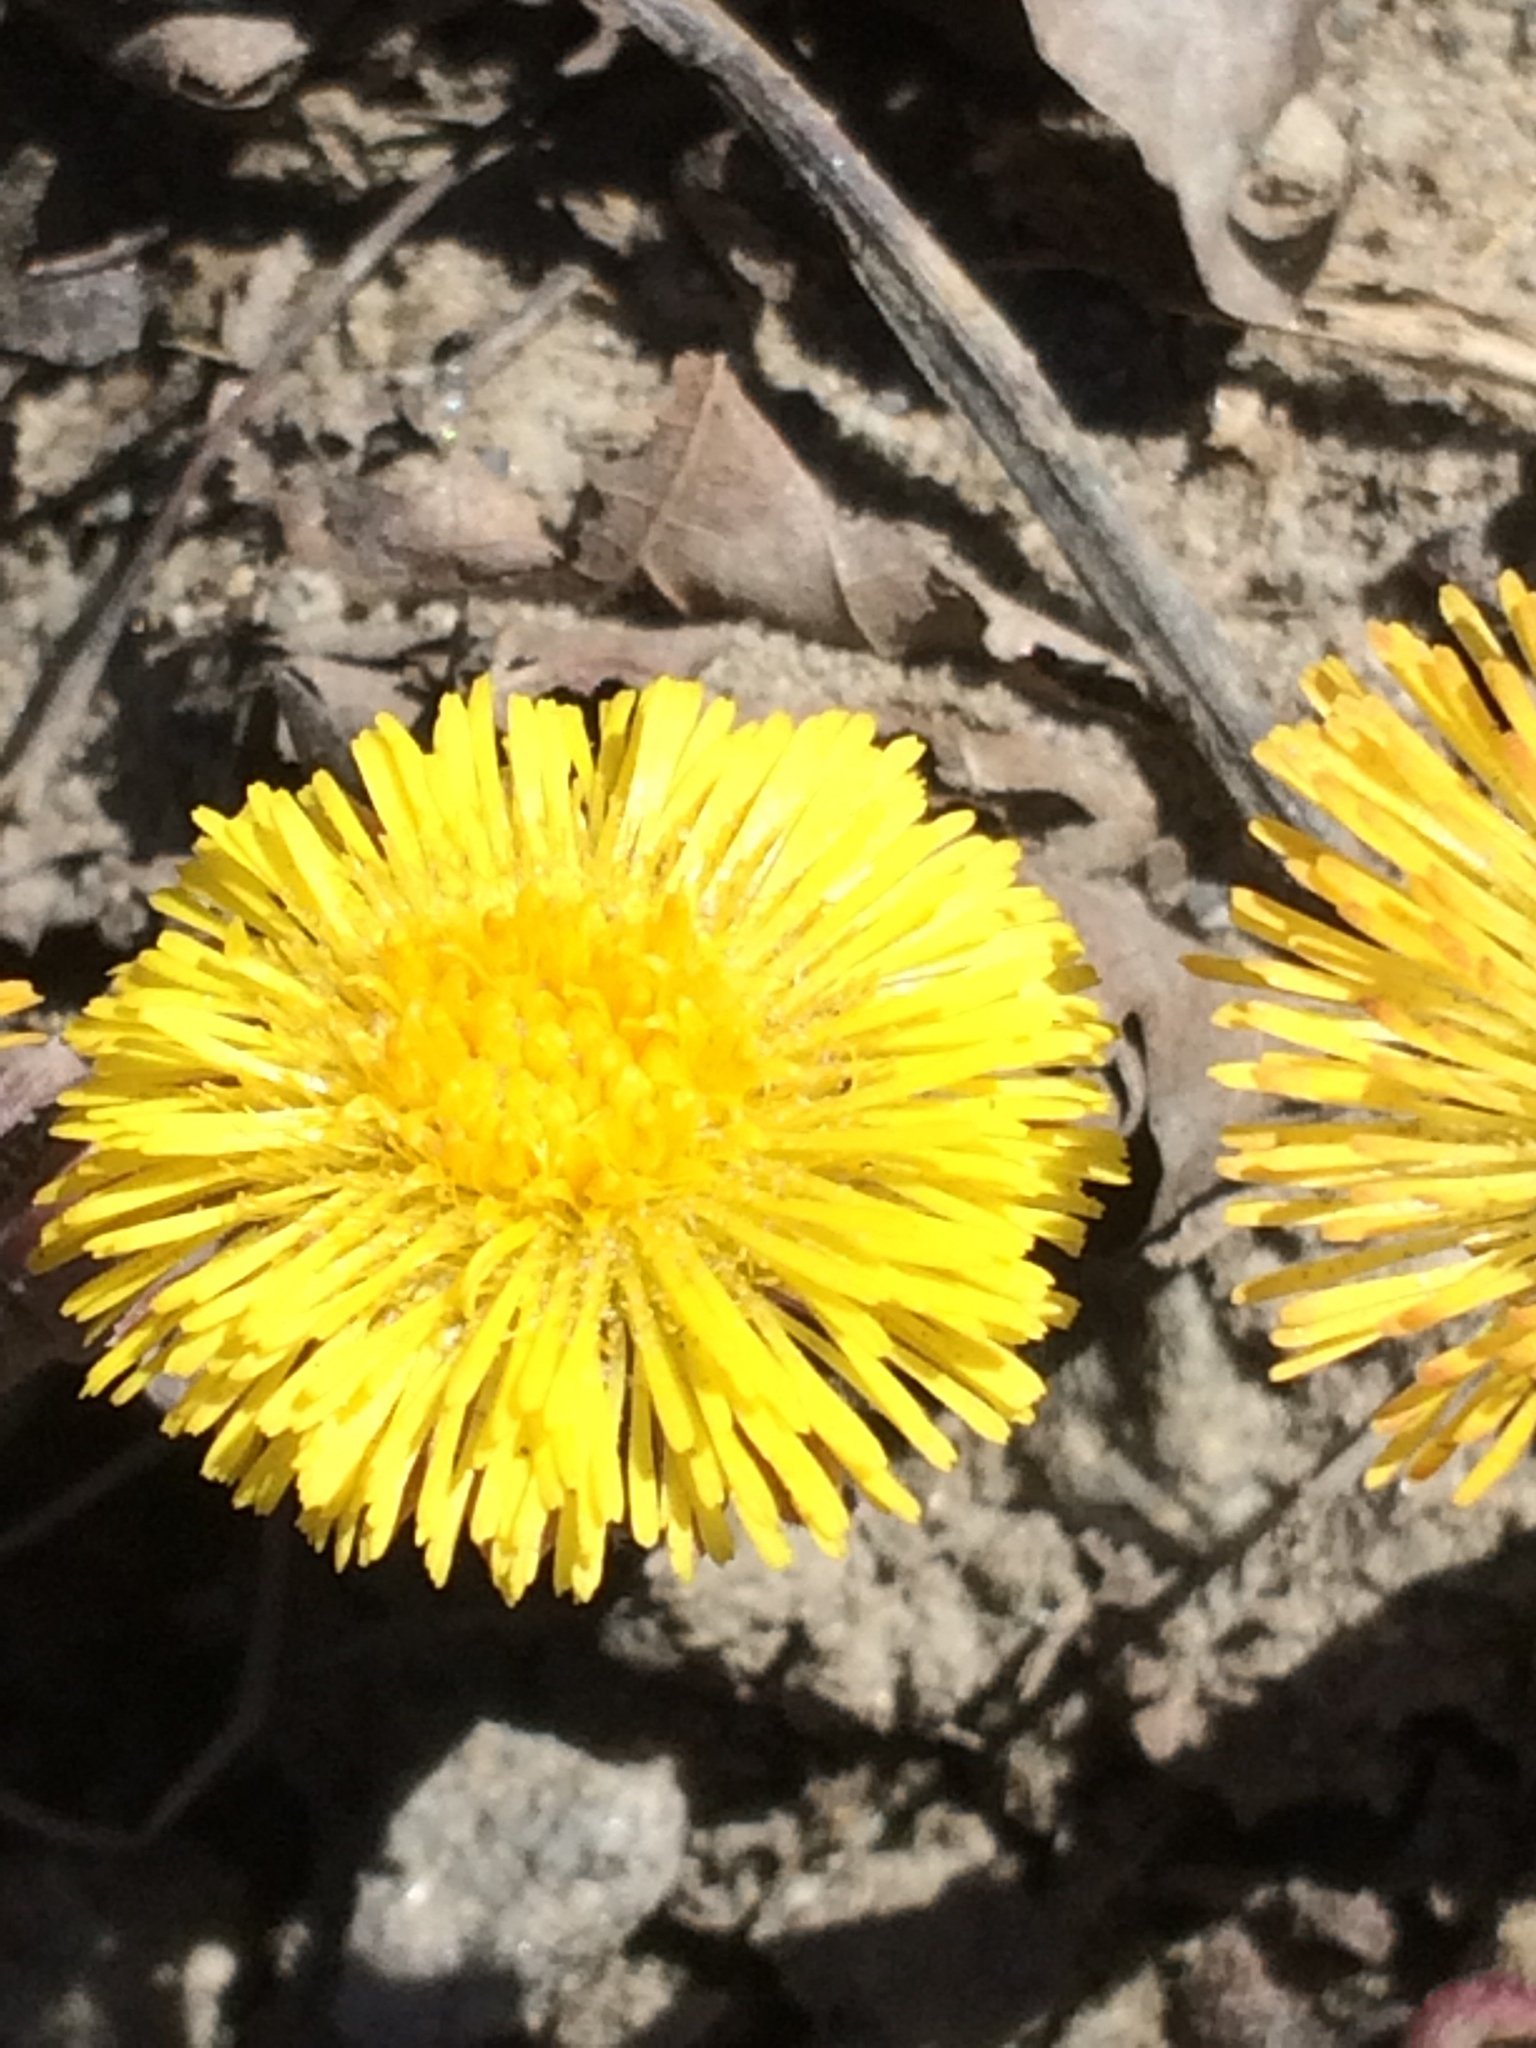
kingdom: Plantae
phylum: Tracheophyta
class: Magnoliopsida
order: Asterales
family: Asteraceae
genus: Tussilago
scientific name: Tussilago farfara
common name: Coltsfoot
